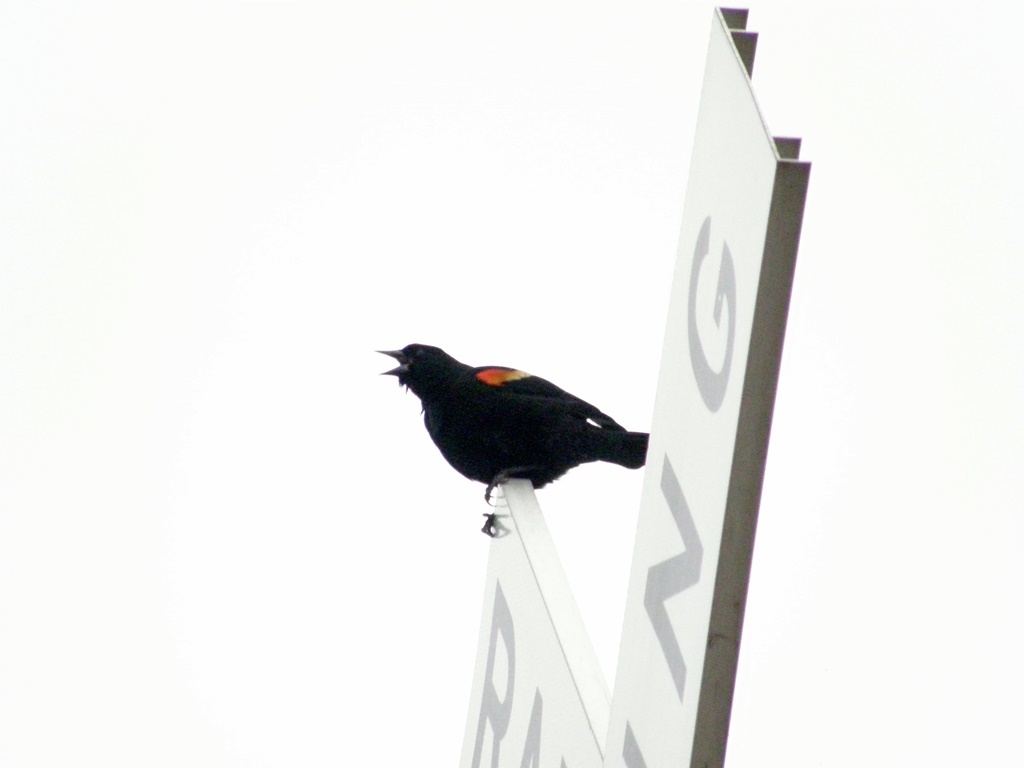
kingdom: Animalia
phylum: Chordata
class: Aves
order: Passeriformes
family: Icteridae
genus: Agelaius
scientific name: Agelaius phoeniceus
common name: Red-winged blackbird
